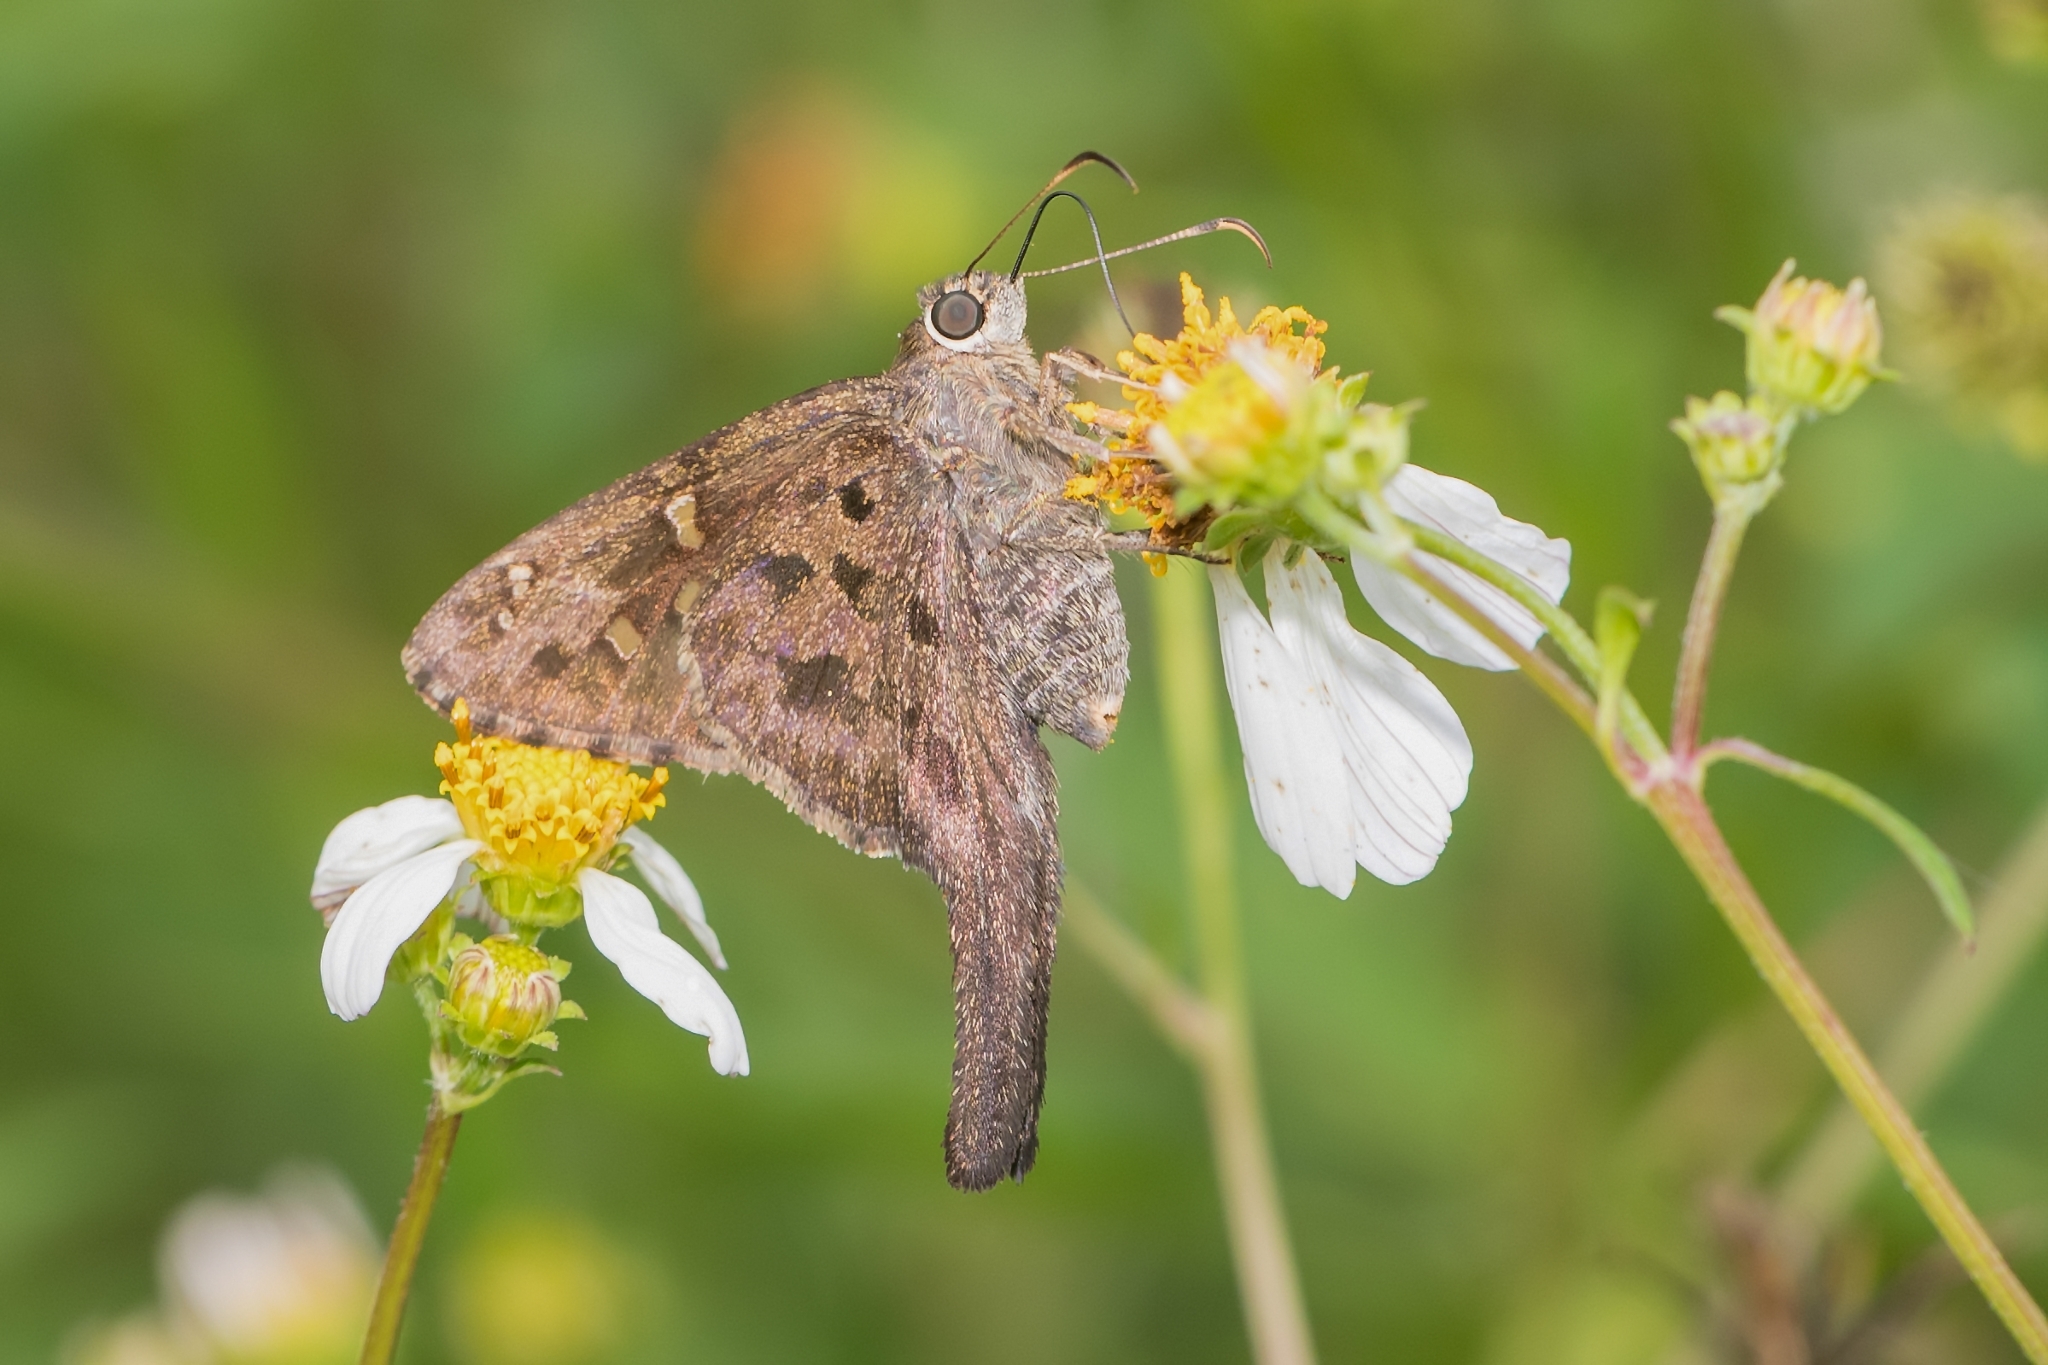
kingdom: Animalia
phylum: Arthropoda
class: Insecta
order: Lepidoptera
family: Hesperiidae
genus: Thorybes
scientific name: Thorybes
